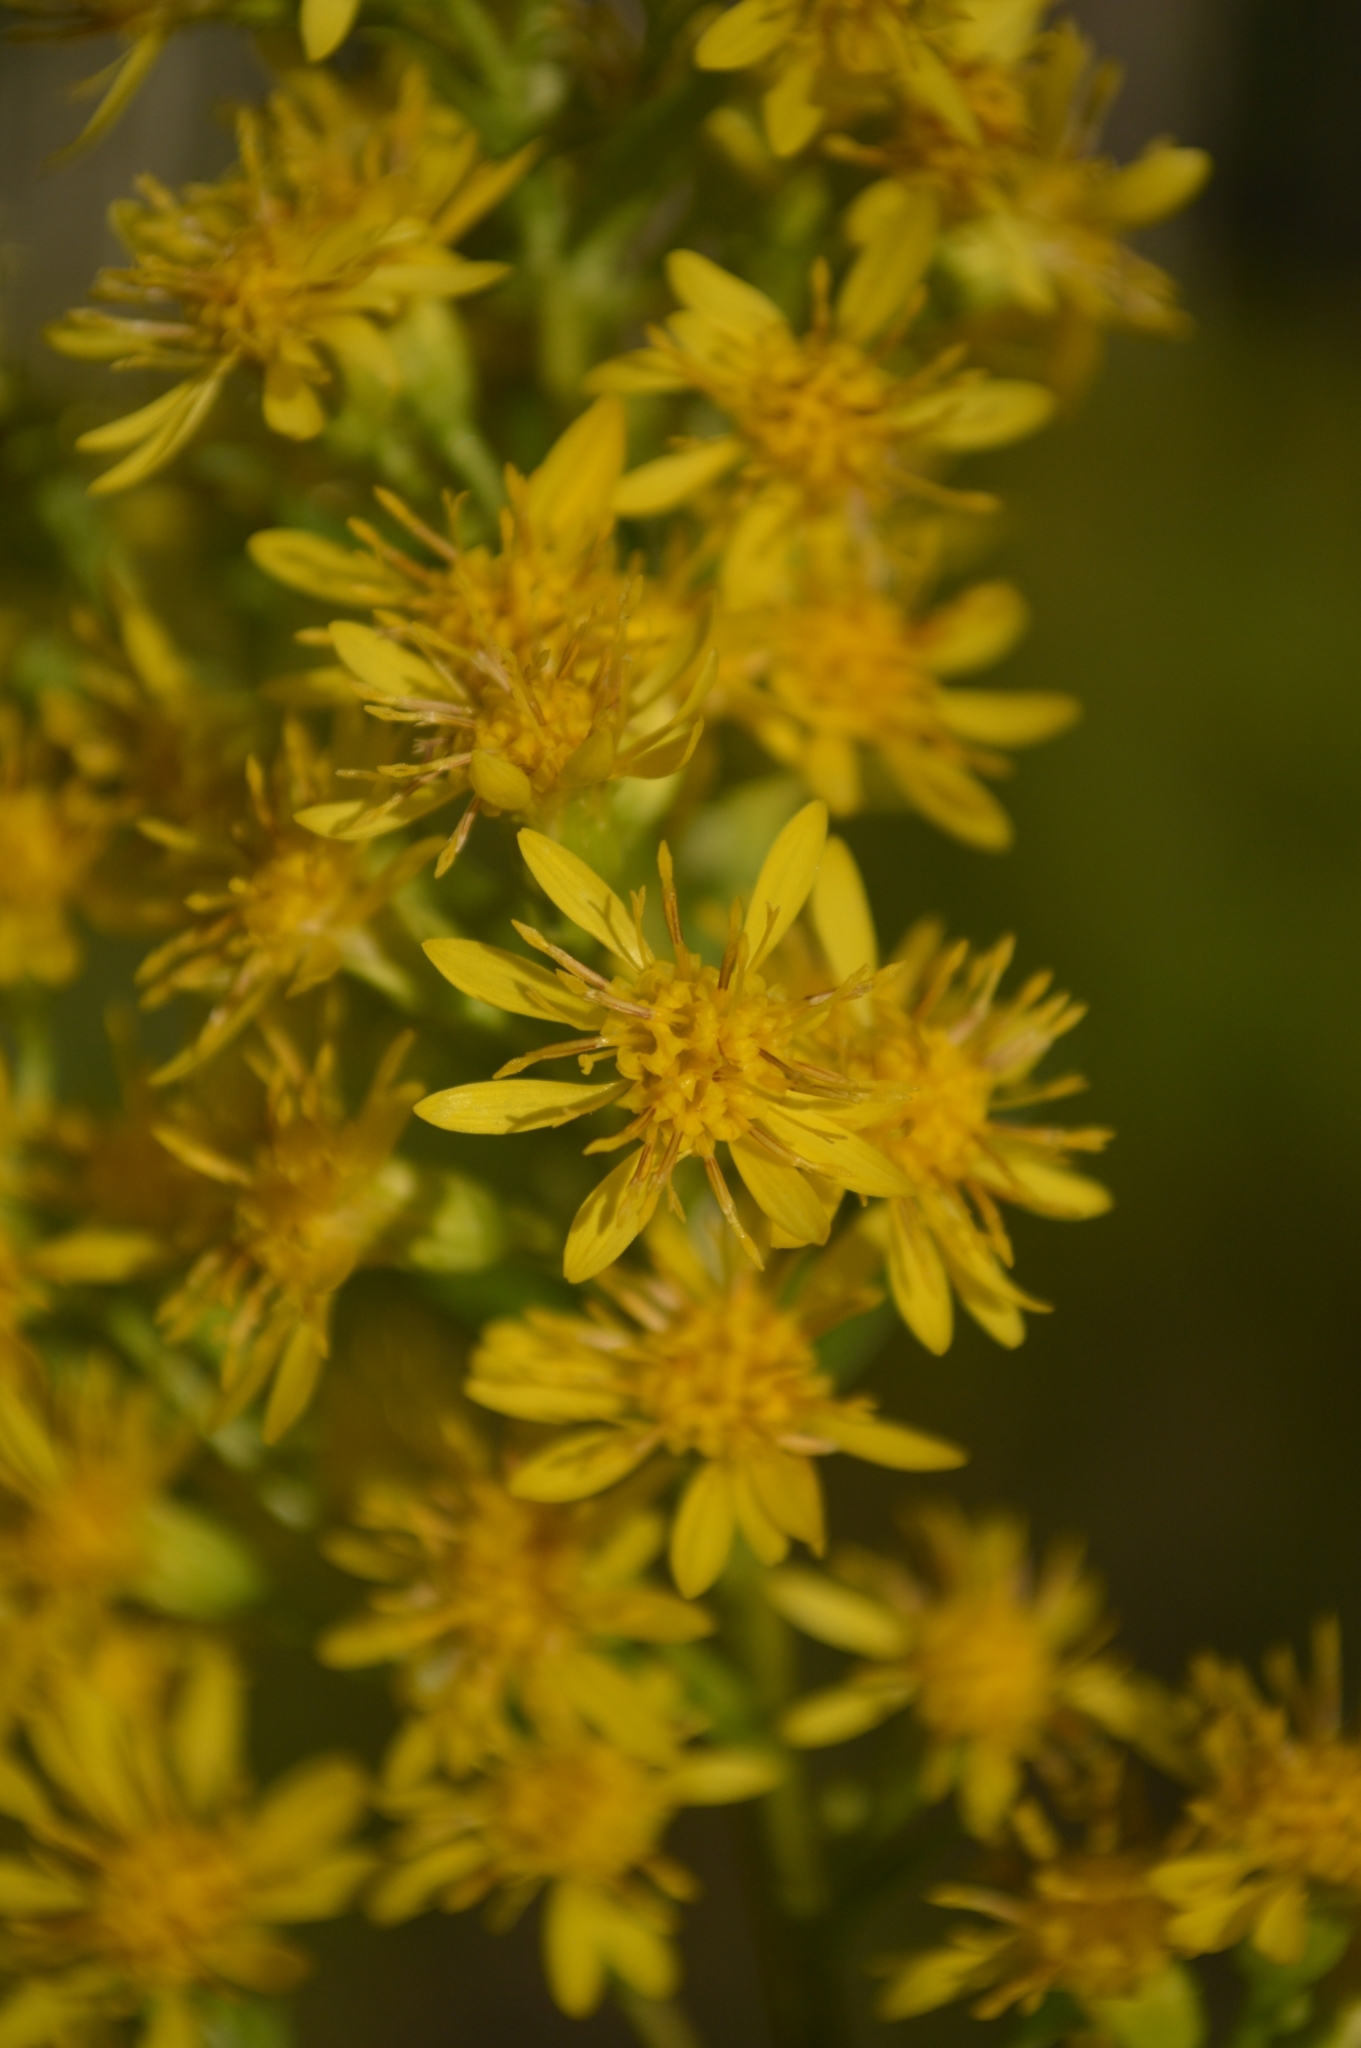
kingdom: Plantae
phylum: Tracheophyta
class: Magnoliopsida
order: Asterales
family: Asteraceae
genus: Solidago
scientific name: Solidago virgaurea
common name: Goldenrod
